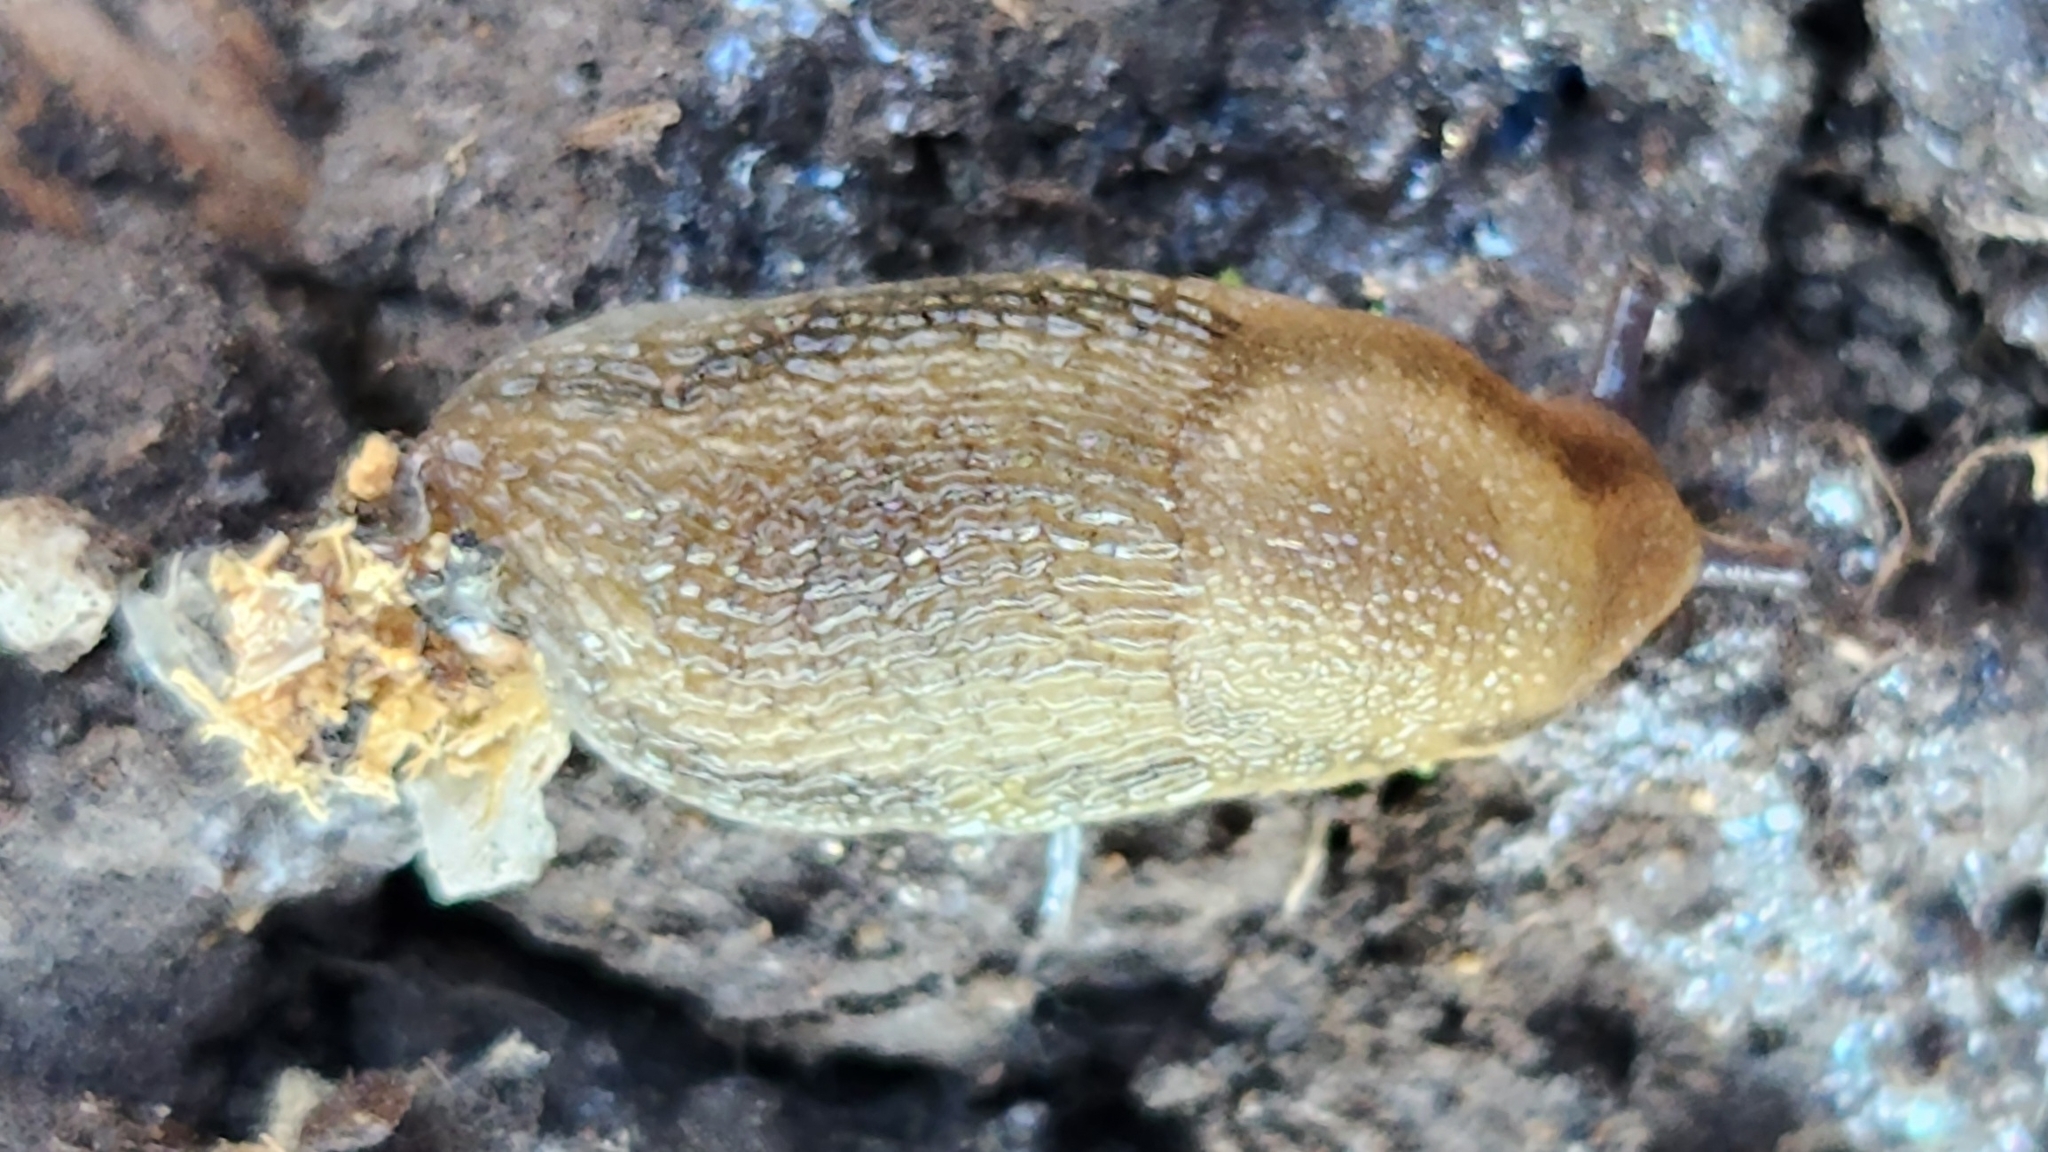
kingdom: Animalia
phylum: Mollusca
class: Gastropoda
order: Stylommatophora
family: Arionidae
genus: Mesarion
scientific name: Mesarion
